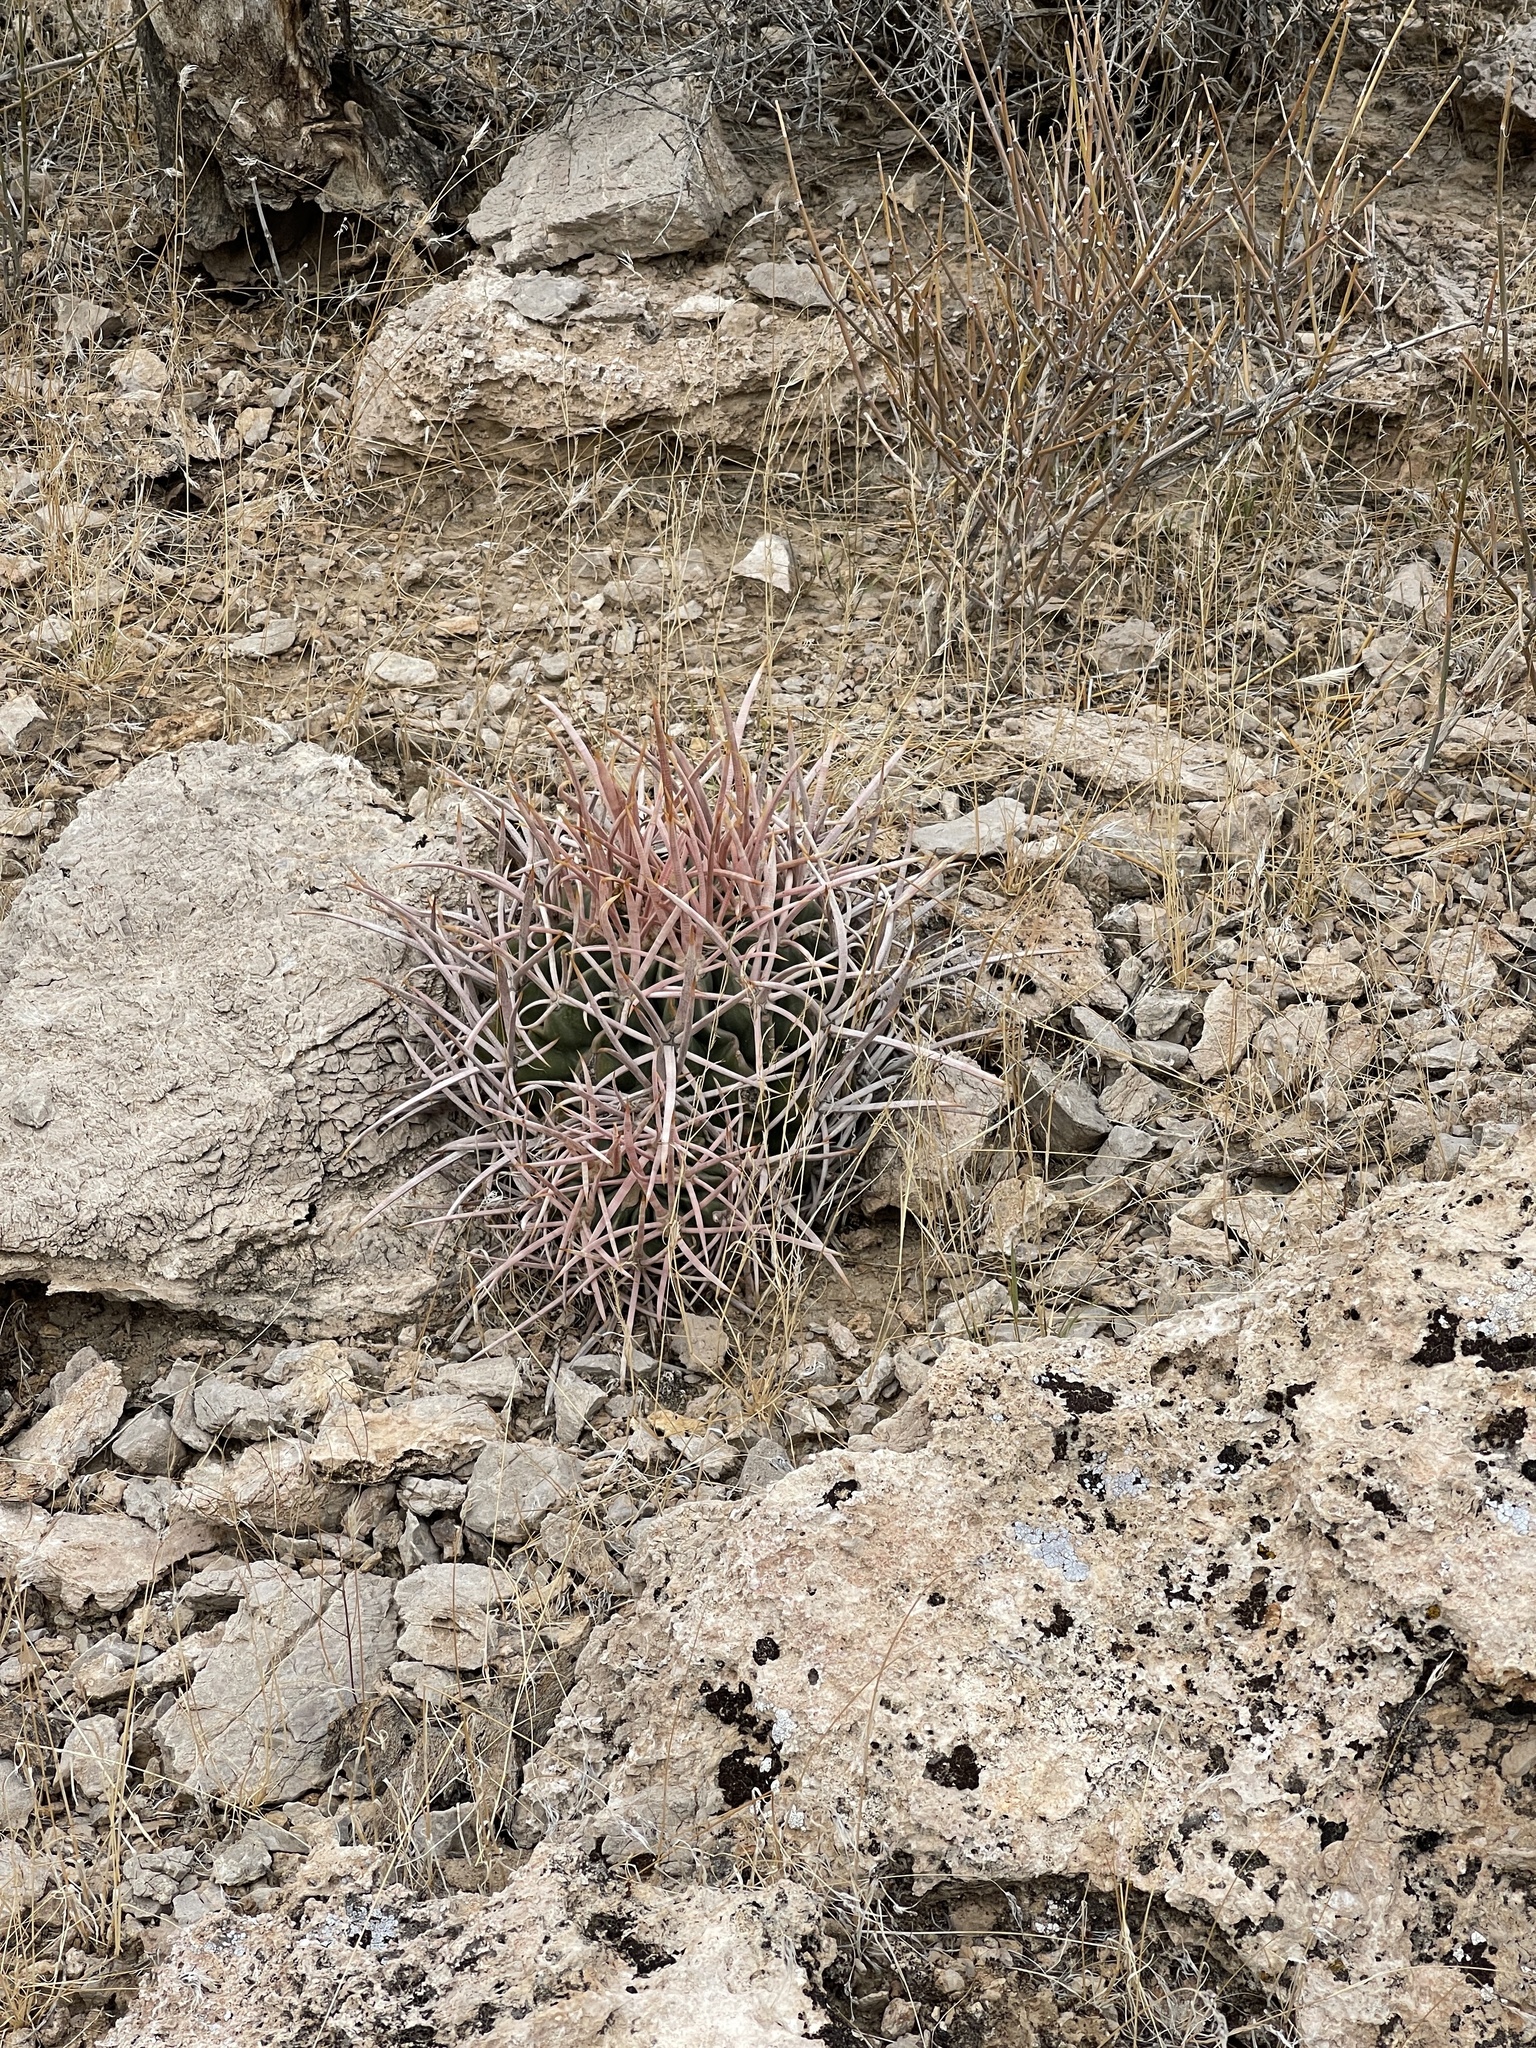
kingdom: Plantae
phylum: Tracheophyta
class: Magnoliopsida
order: Caryophyllales
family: Cactaceae
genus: Echinocactus
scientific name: Echinocactus polycephalus
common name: Cottontop cactus
